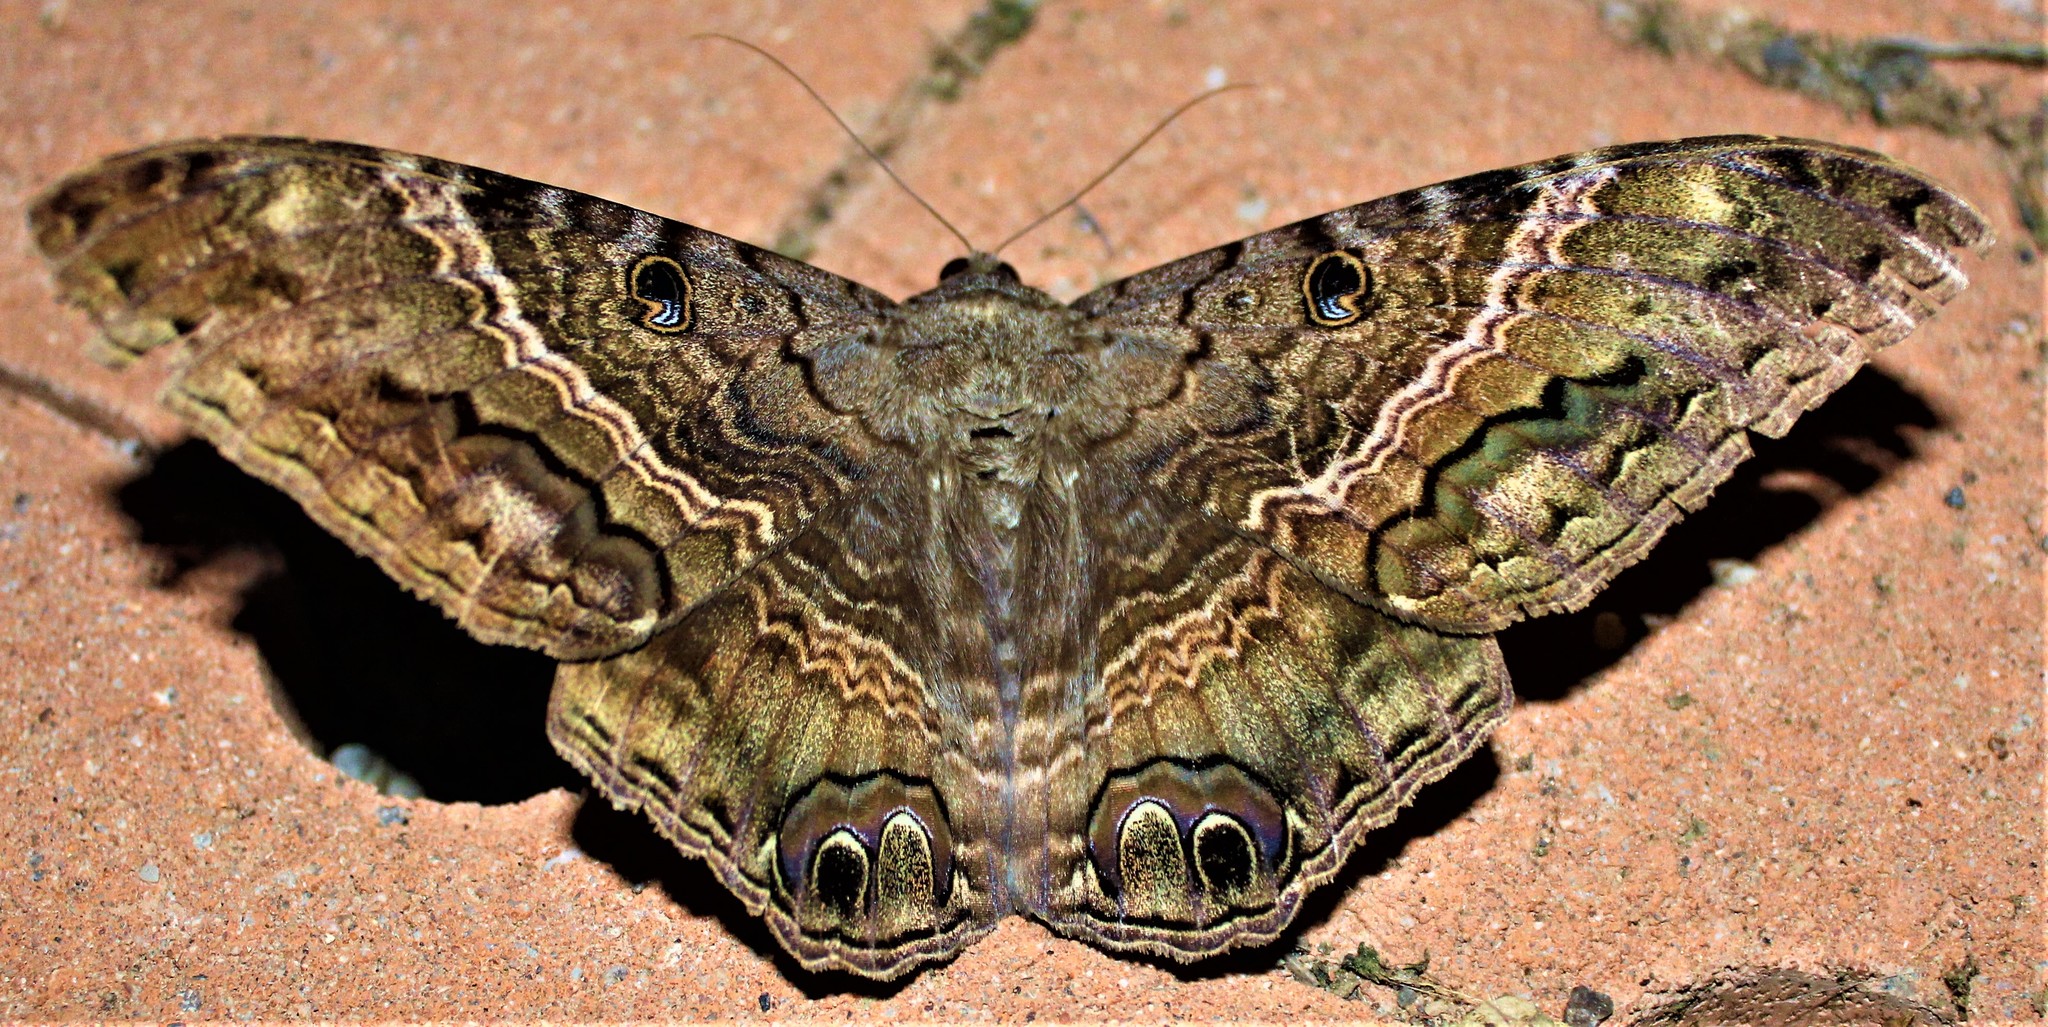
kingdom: Animalia
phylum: Arthropoda
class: Insecta
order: Lepidoptera
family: Erebidae
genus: Ascalapha
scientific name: Ascalapha odorata
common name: Black witch
